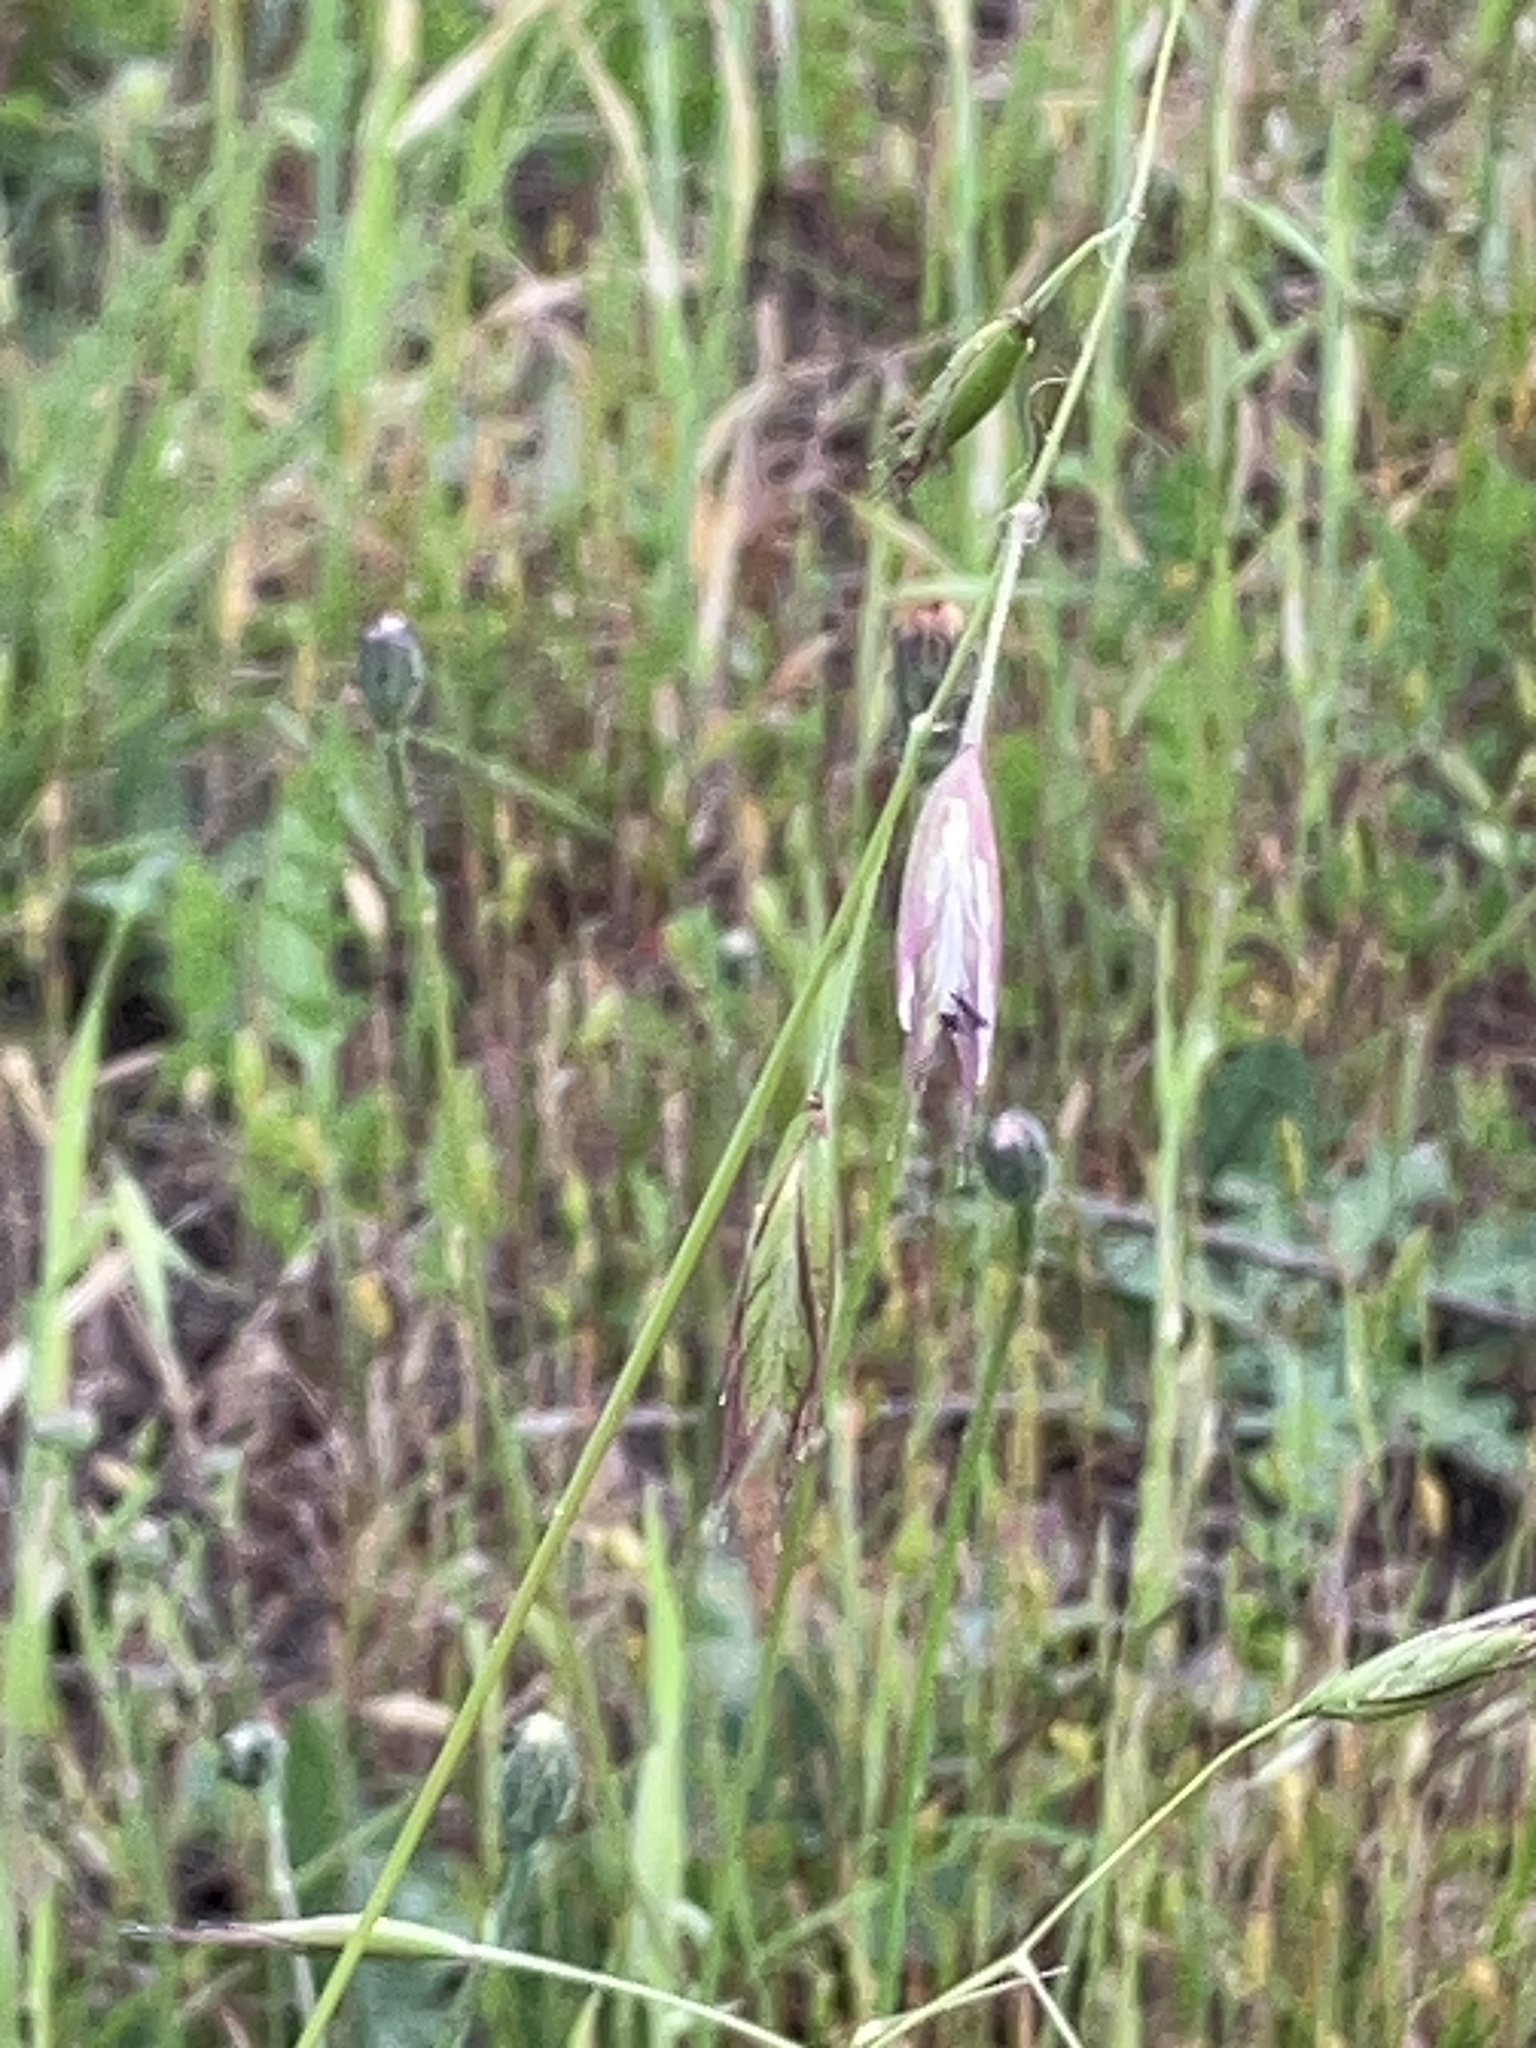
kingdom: Plantae
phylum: Tracheophyta
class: Liliopsida
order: Poales
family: Poaceae
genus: Danthonia
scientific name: Danthonia californica
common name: California oat grass
